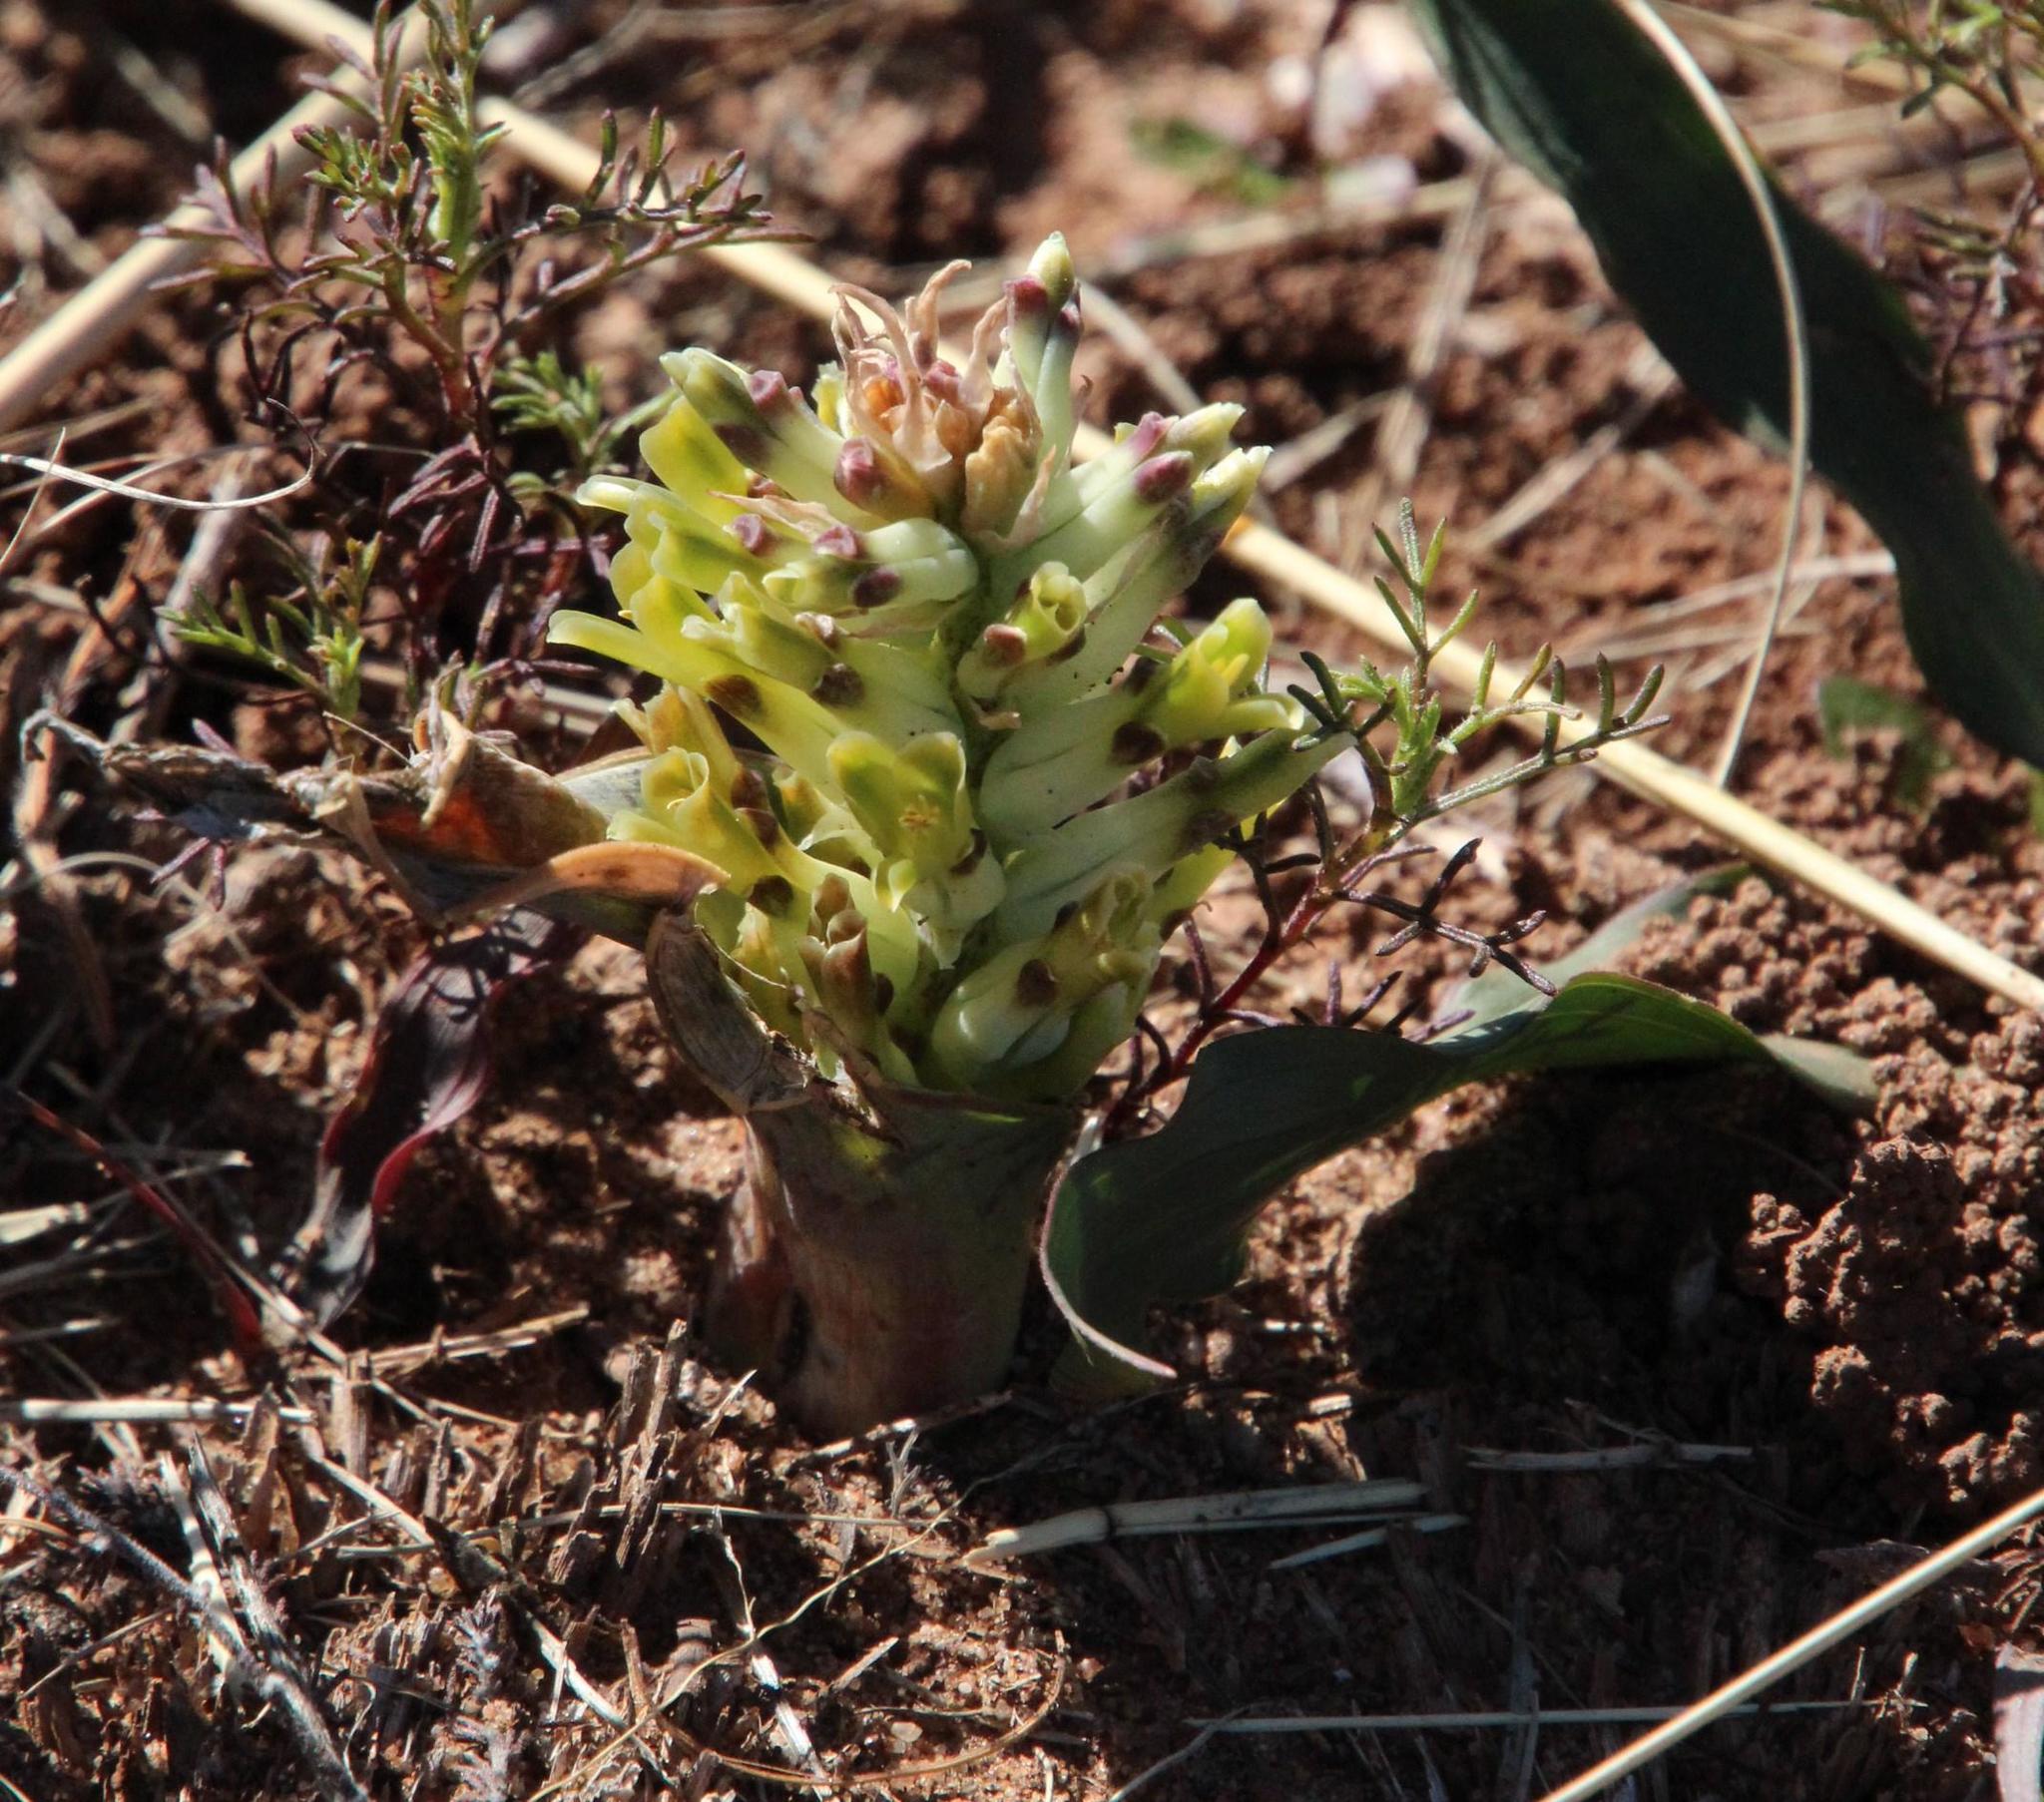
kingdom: Plantae
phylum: Tracheophyta
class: Liliopsida
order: Asparagales
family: Asparagaceae
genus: Lachenalia
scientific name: Lachenalia marginata
